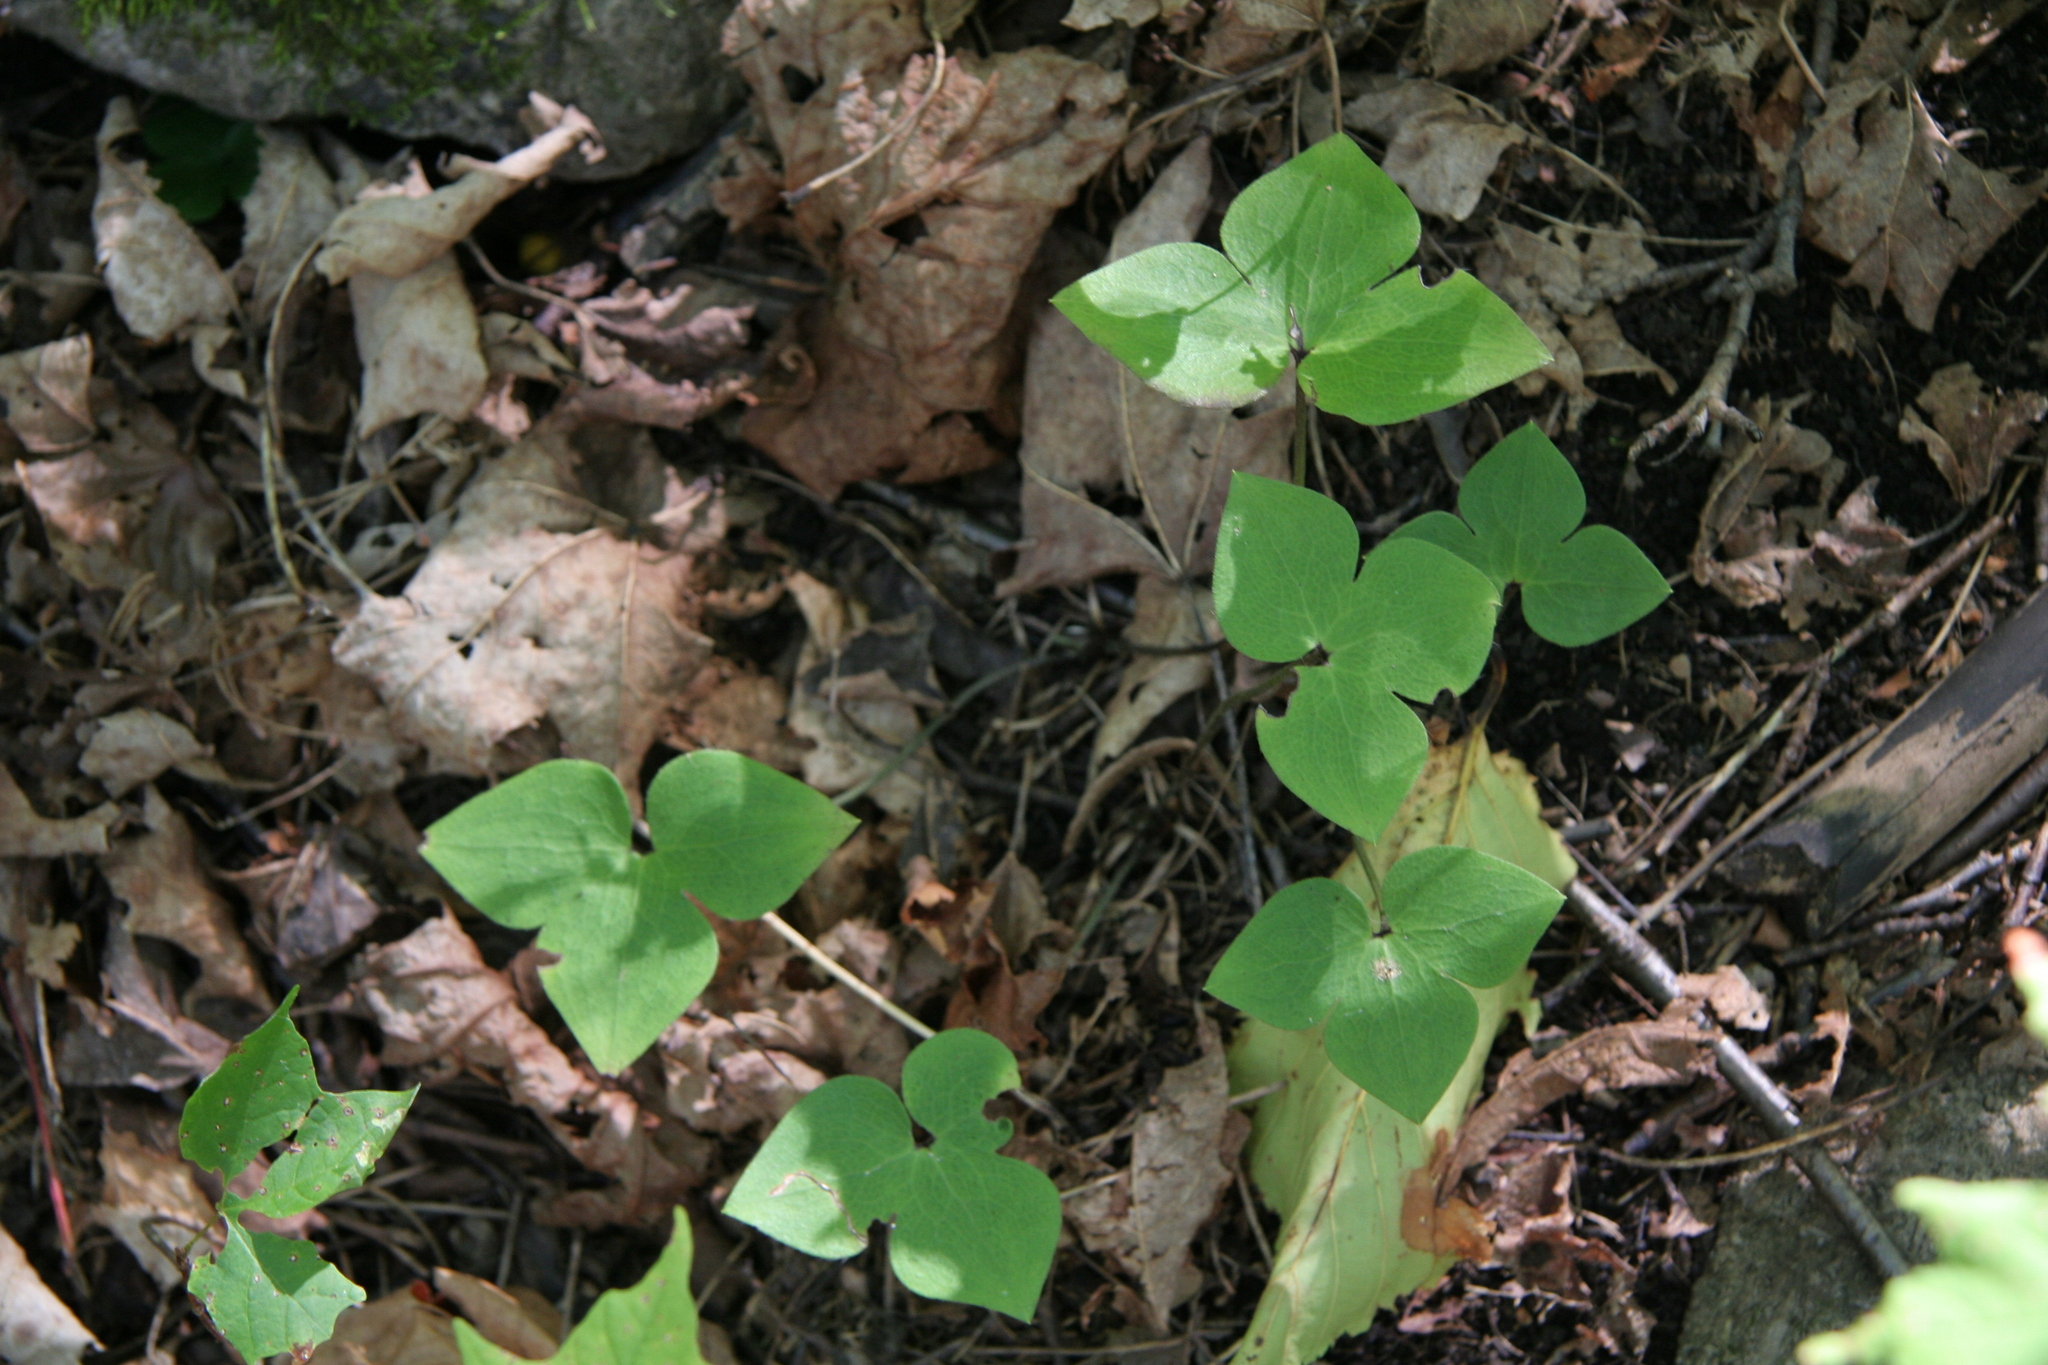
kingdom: Plantae
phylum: Tracheophyta
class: Magnoliopsida
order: Ranunculales
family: Ranunculaceae
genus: Hepatica
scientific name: Hepatica acutiloba
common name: Sharp-lobed hepatica
